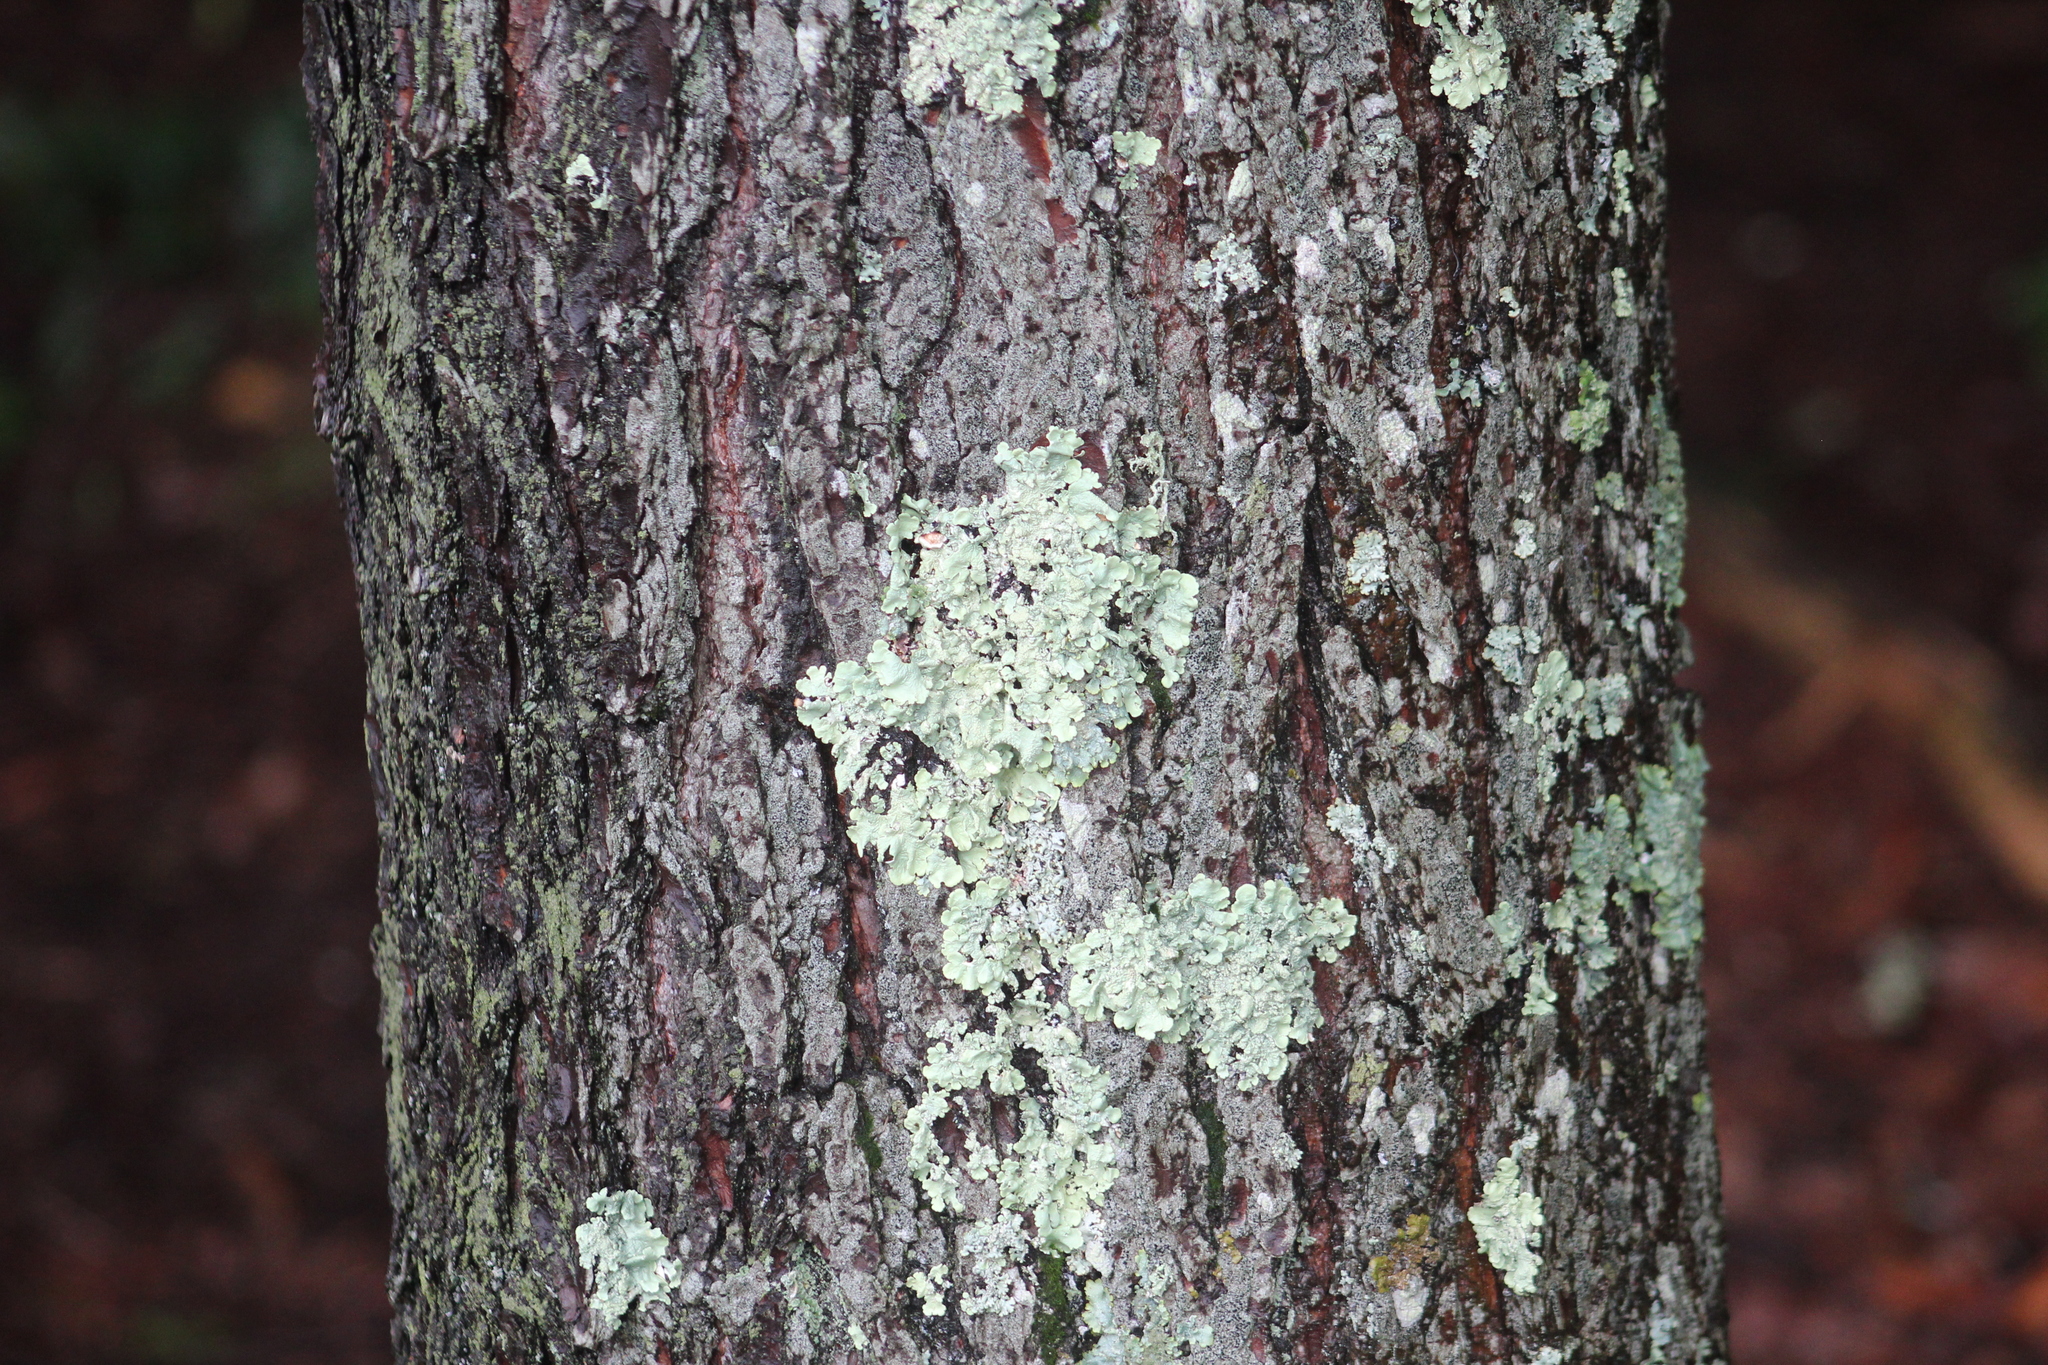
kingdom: Fungi
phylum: Ascomycota
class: Lecanoromycetes
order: Lecanorales
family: Parmeliaceae
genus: Flavoparmelia
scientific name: Flavoparmelia caperata
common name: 40-mile per hour lichen
